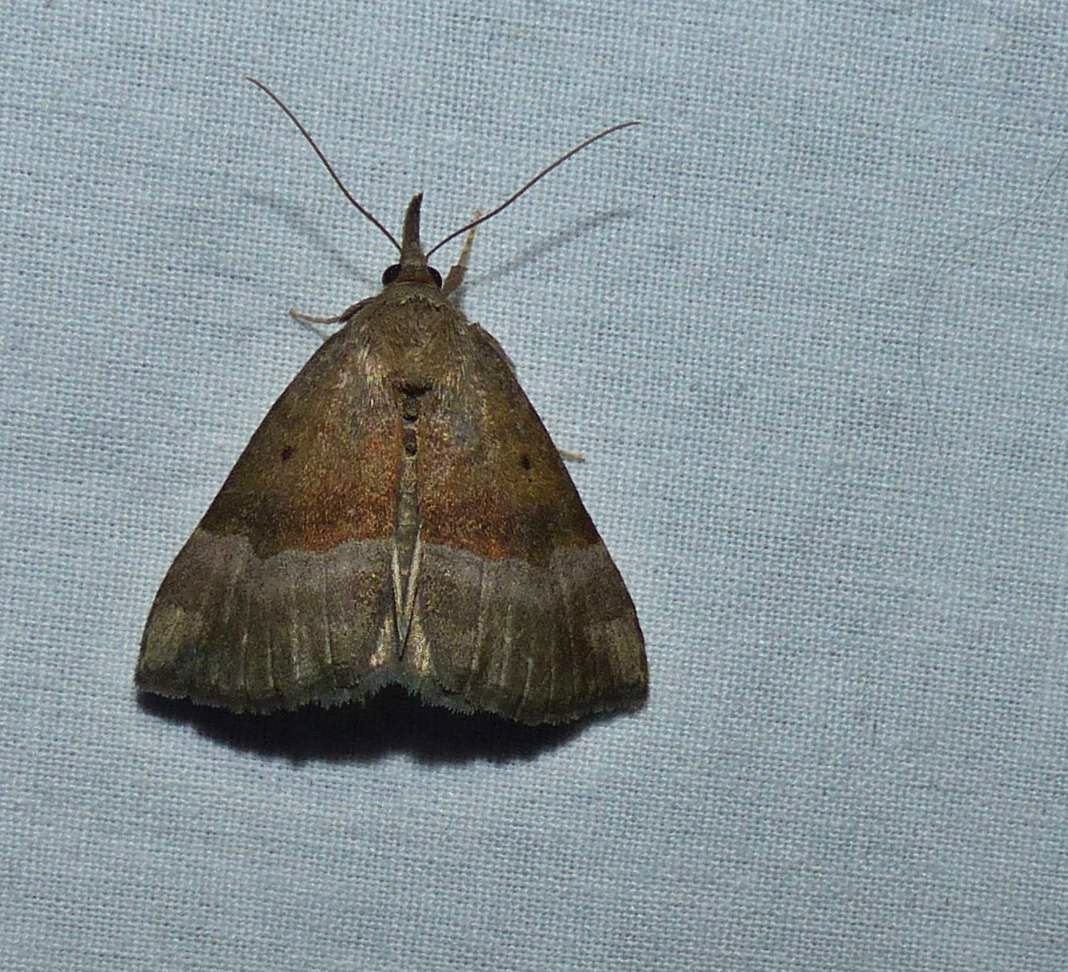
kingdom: Animalia
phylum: Arthropoda
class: Insecta
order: Lepidoptera
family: Erebidae
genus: Hypena
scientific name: Hypena madefactalis
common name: Gray-edged snout
